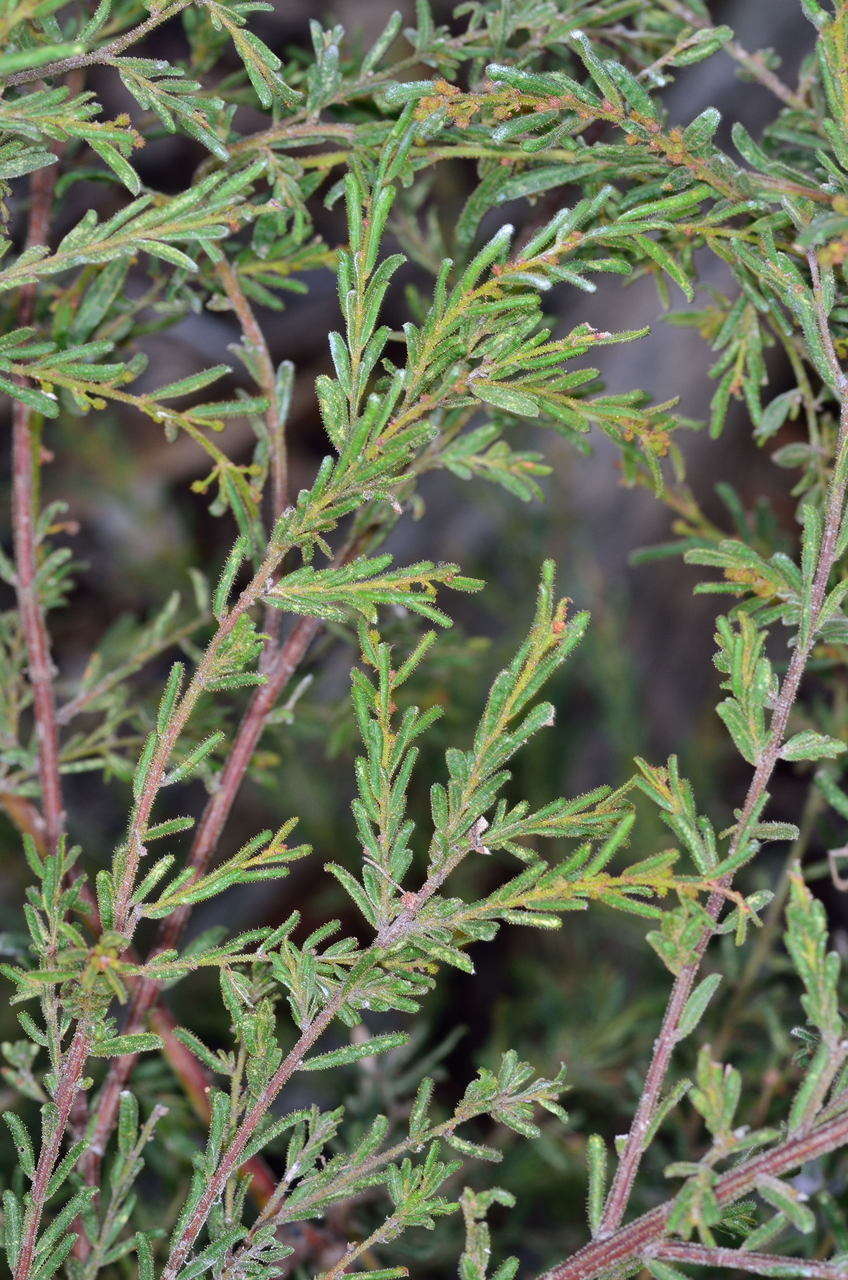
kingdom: Plantae
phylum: Tracheophyta
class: Magnoliopsida
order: Fabales
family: Fabaceae
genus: Acacia
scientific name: Acacia aspera
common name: Rough wattle
